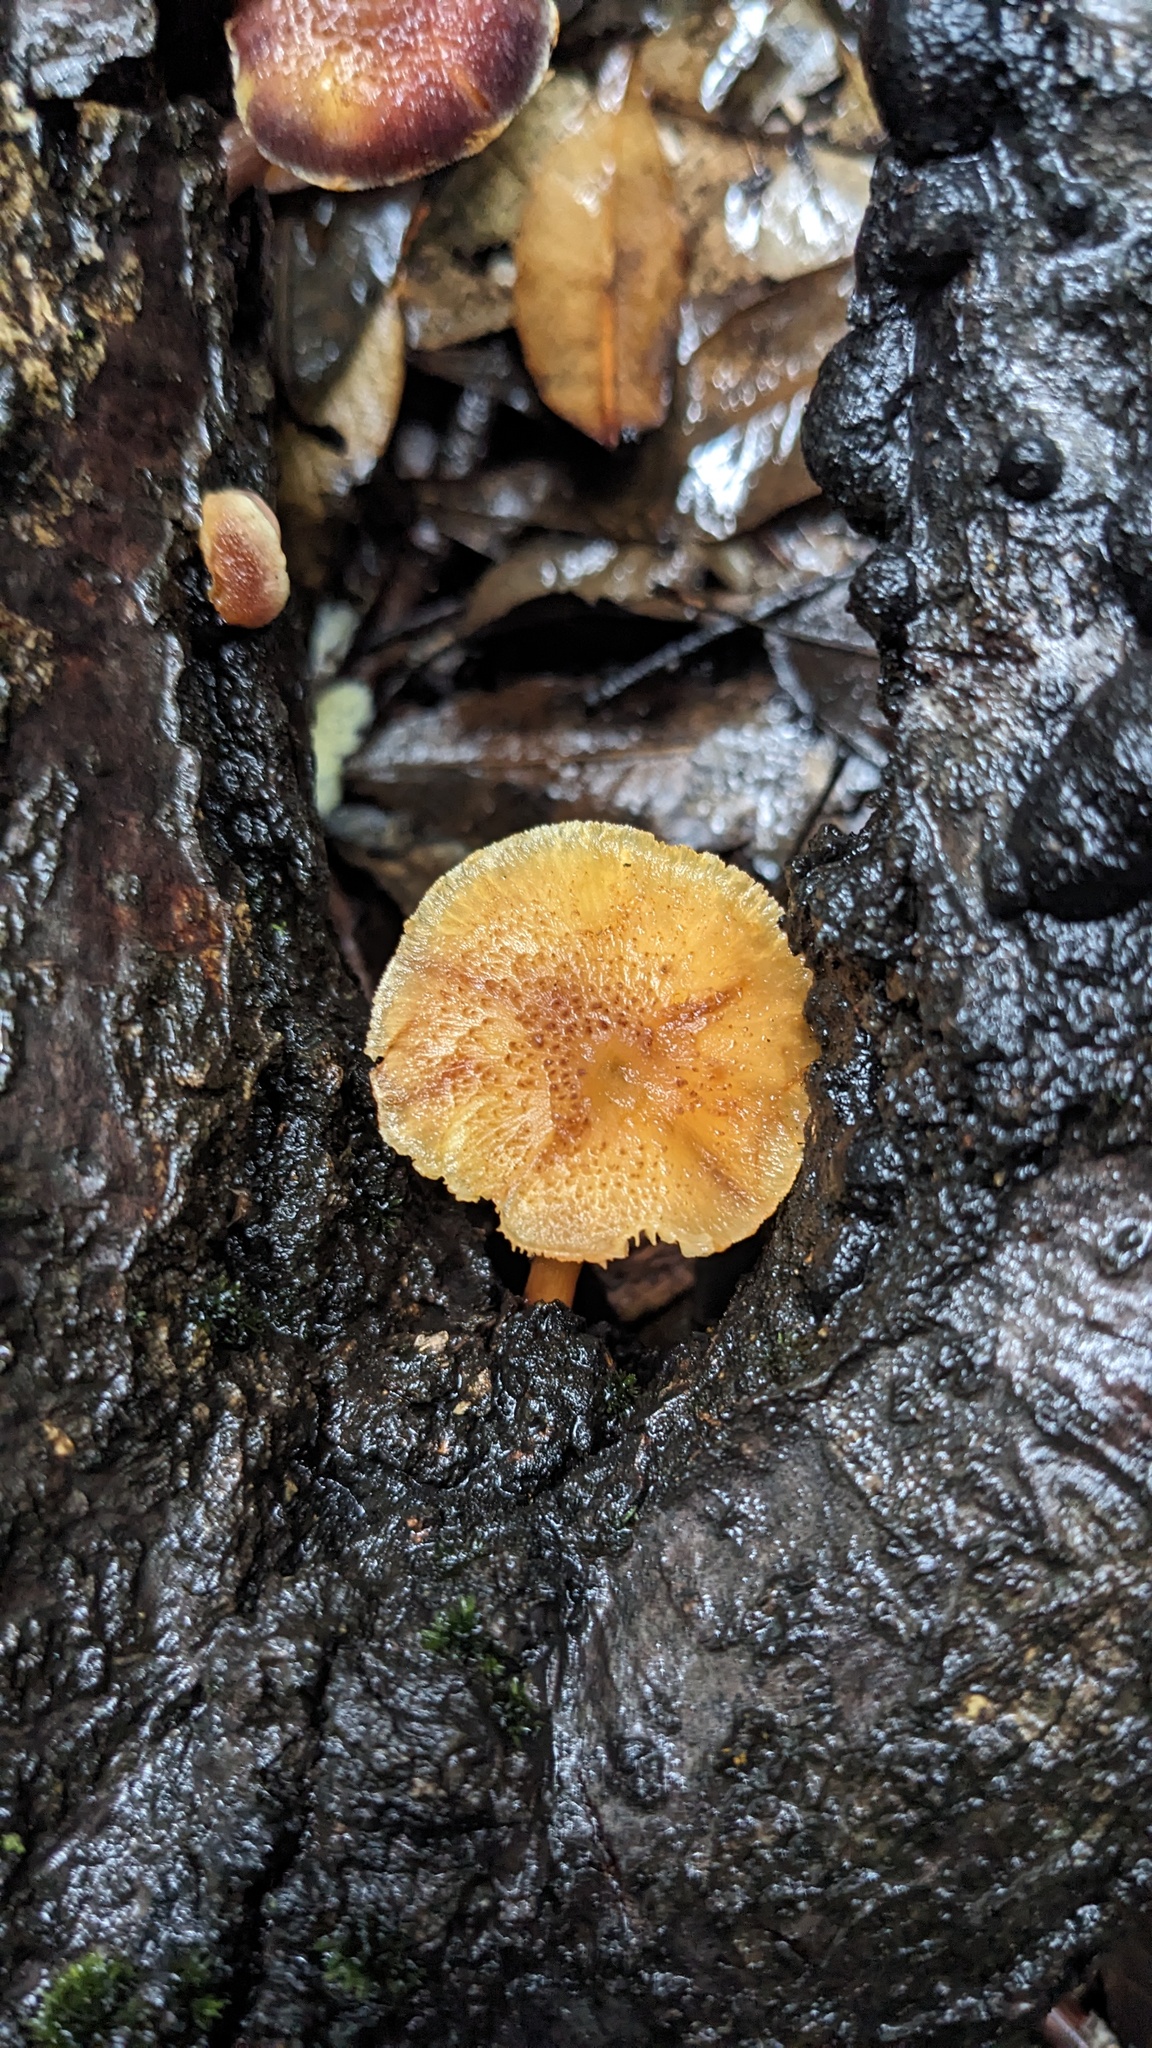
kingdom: Fungi
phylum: Basidiomycota
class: Agaricomycetes
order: Agaricales
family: Hymenogastraceae
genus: Gymnopilus
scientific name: Gymnopilus luteofolius
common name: Yellow-gilled gymnopilus
